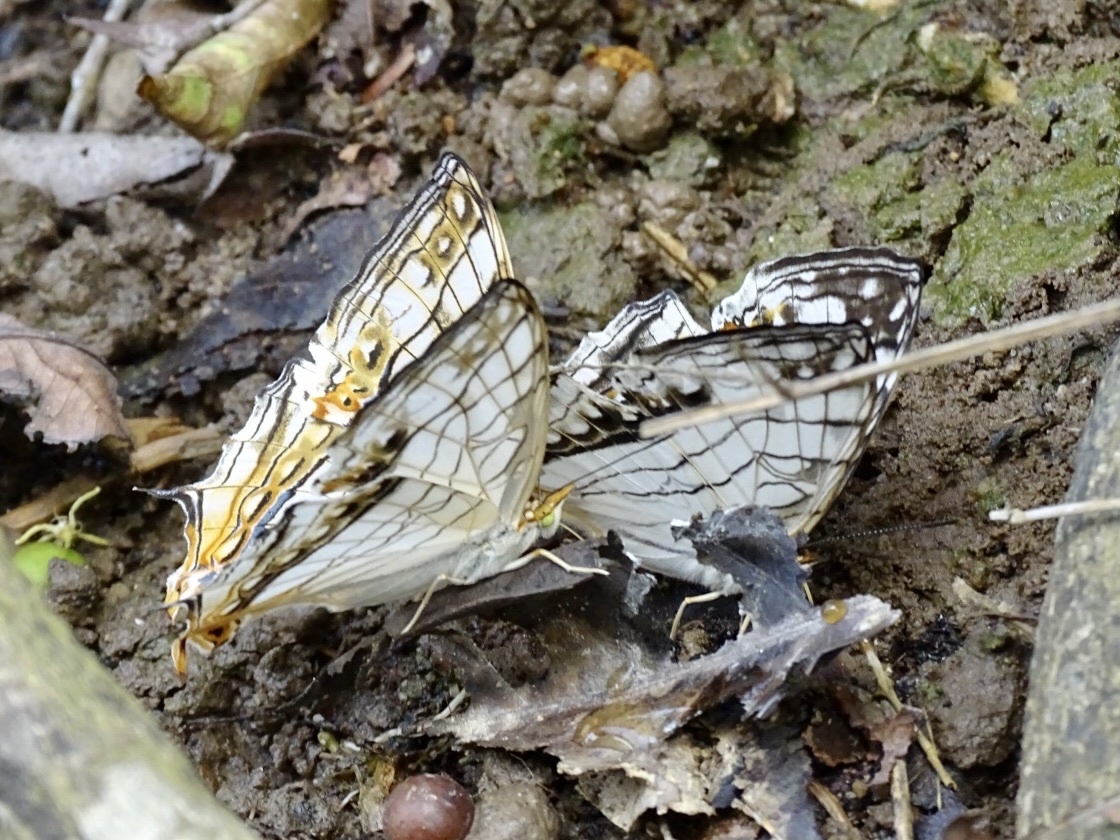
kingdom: Animalia
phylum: Arthropoda
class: Insecta
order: Lepidoptera
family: Nymphalidae
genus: Cyrestis
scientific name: Cyrestis thyodamas
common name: Common mapwing
